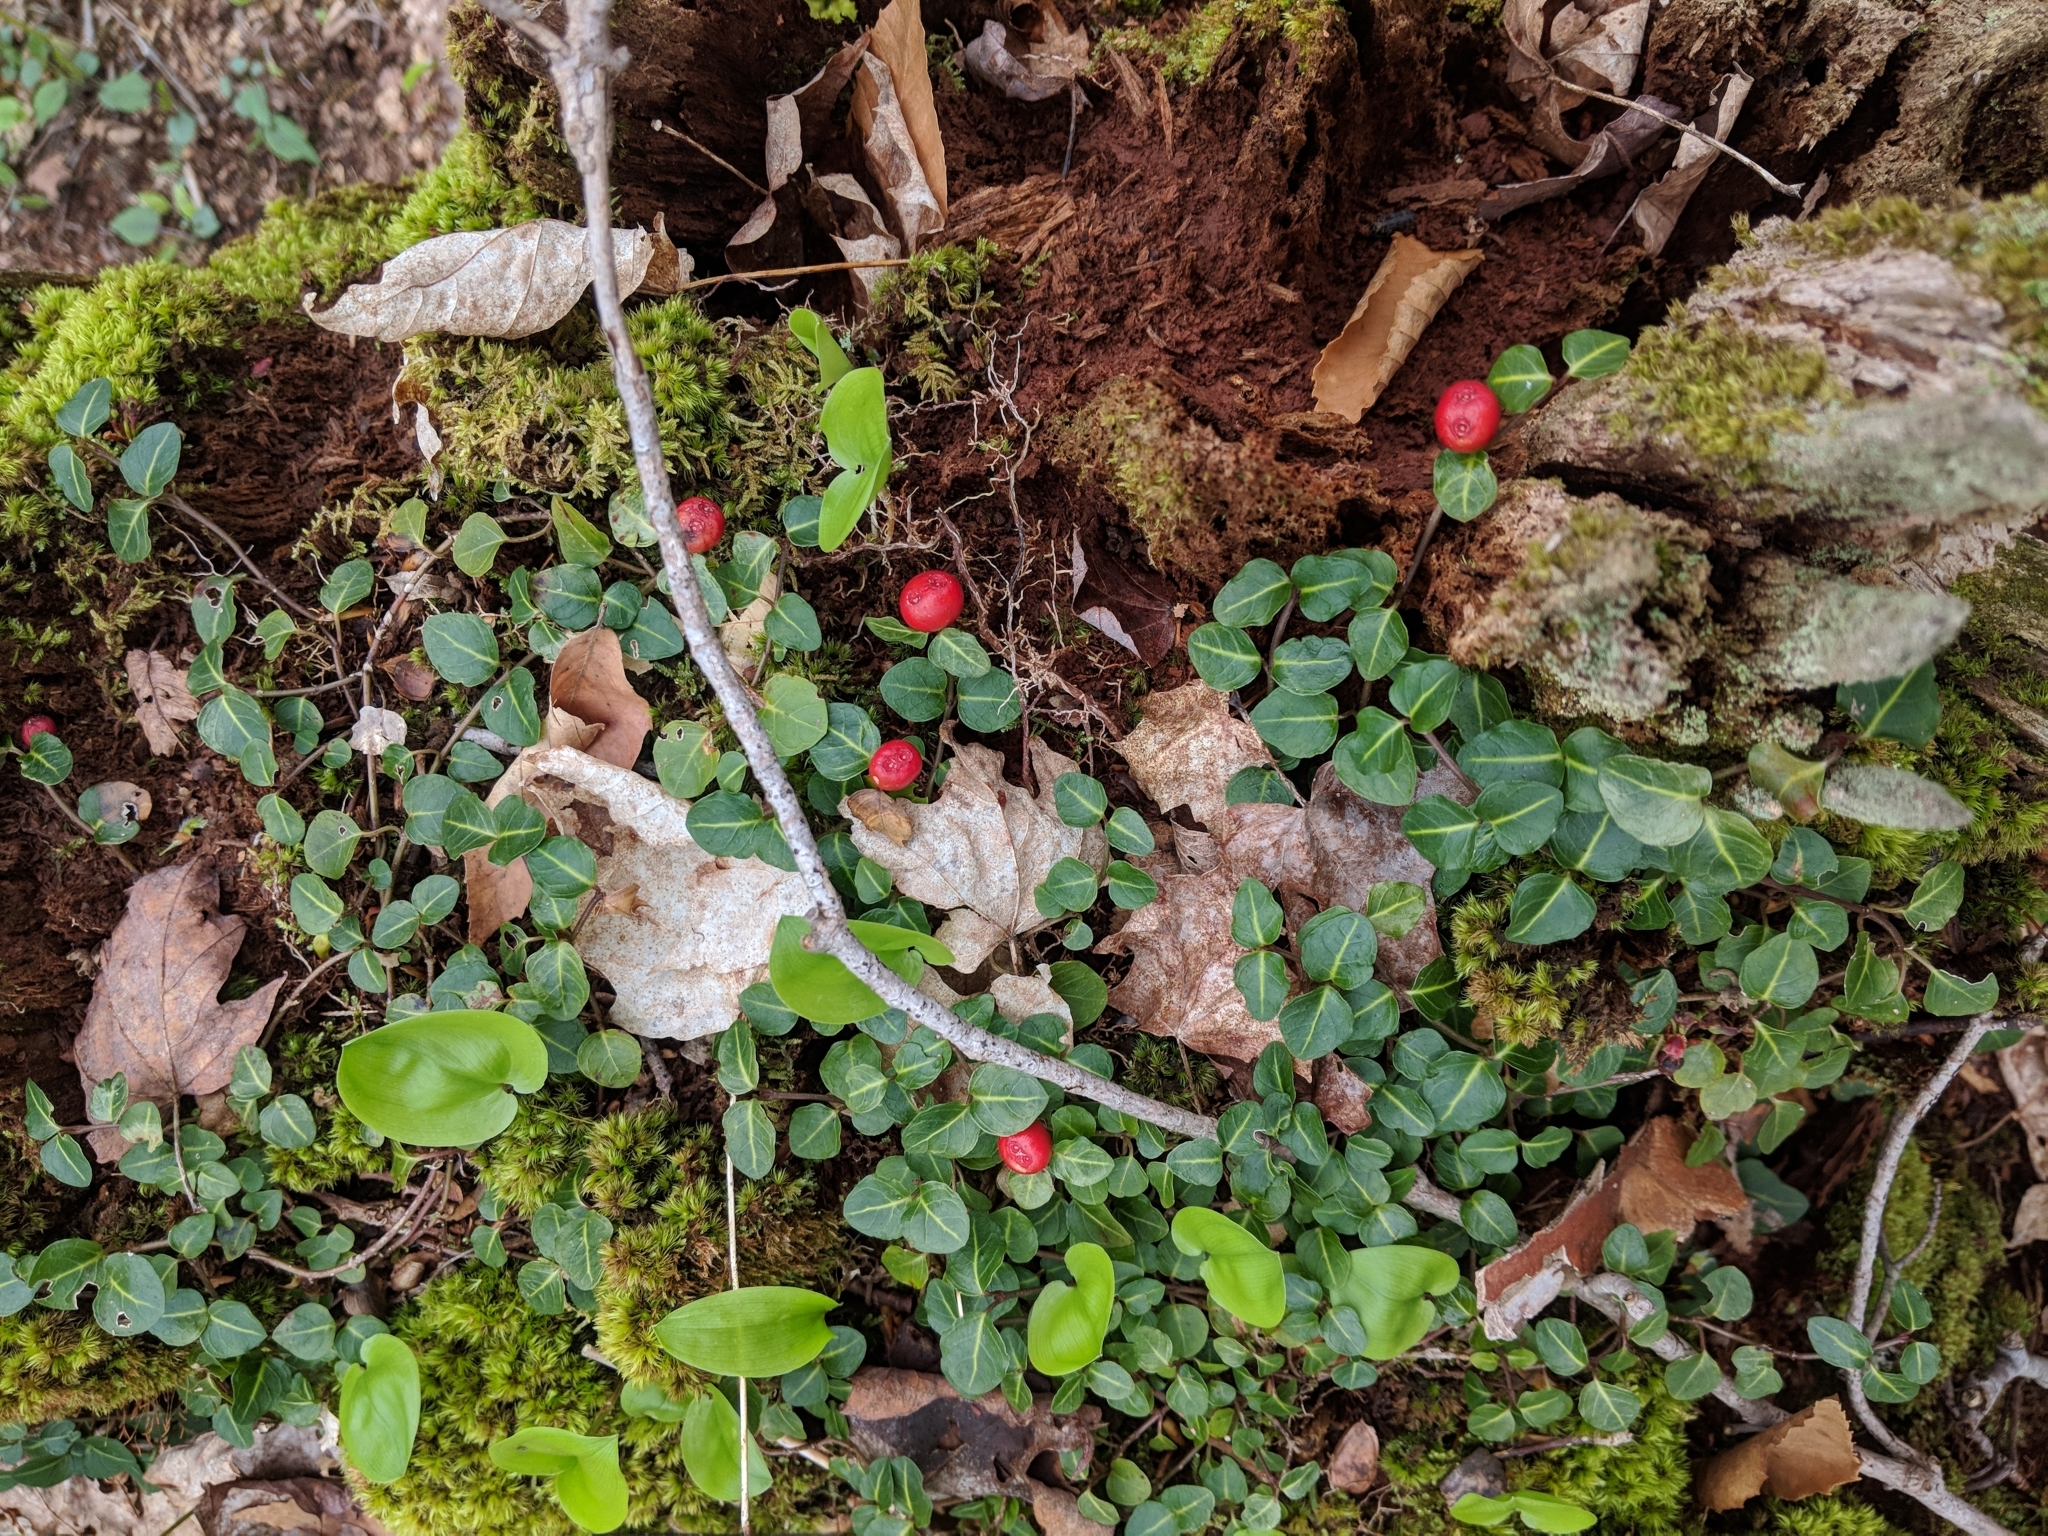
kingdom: Plantae
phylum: Tracheophyta
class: Magnoliopsida
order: Gentianales
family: Rubiaceae
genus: Mitchella
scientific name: Mitchella repens
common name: Partridge-berry
